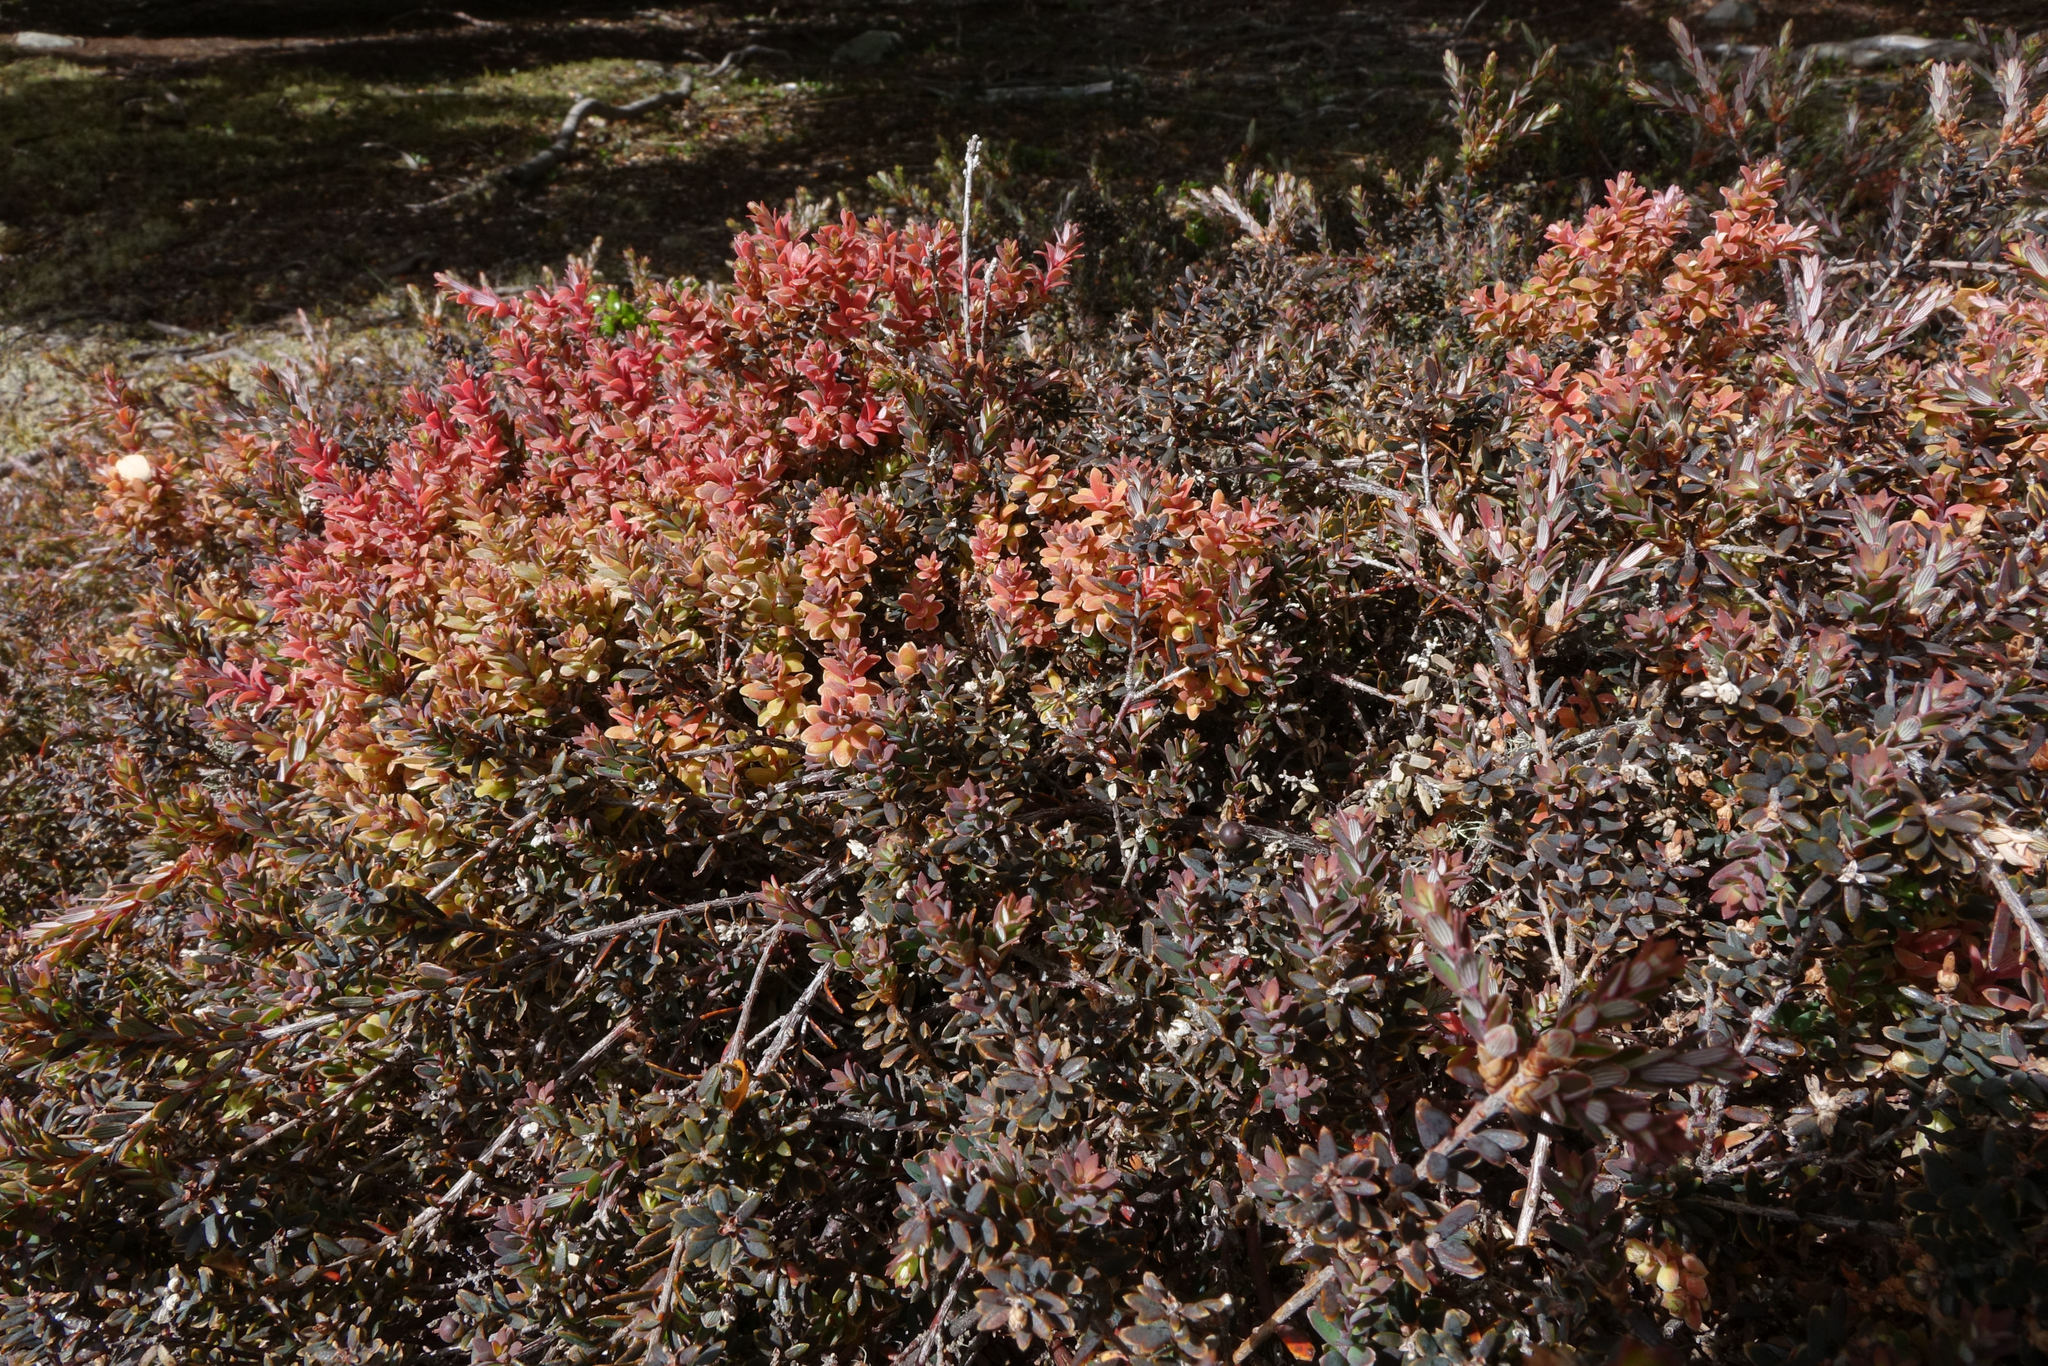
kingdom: Plantae
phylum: Tracheophyta
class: Magnoliopsida
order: Ericales
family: Ericaceae
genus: Acrothamnus
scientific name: Acrothamnus colensoi
